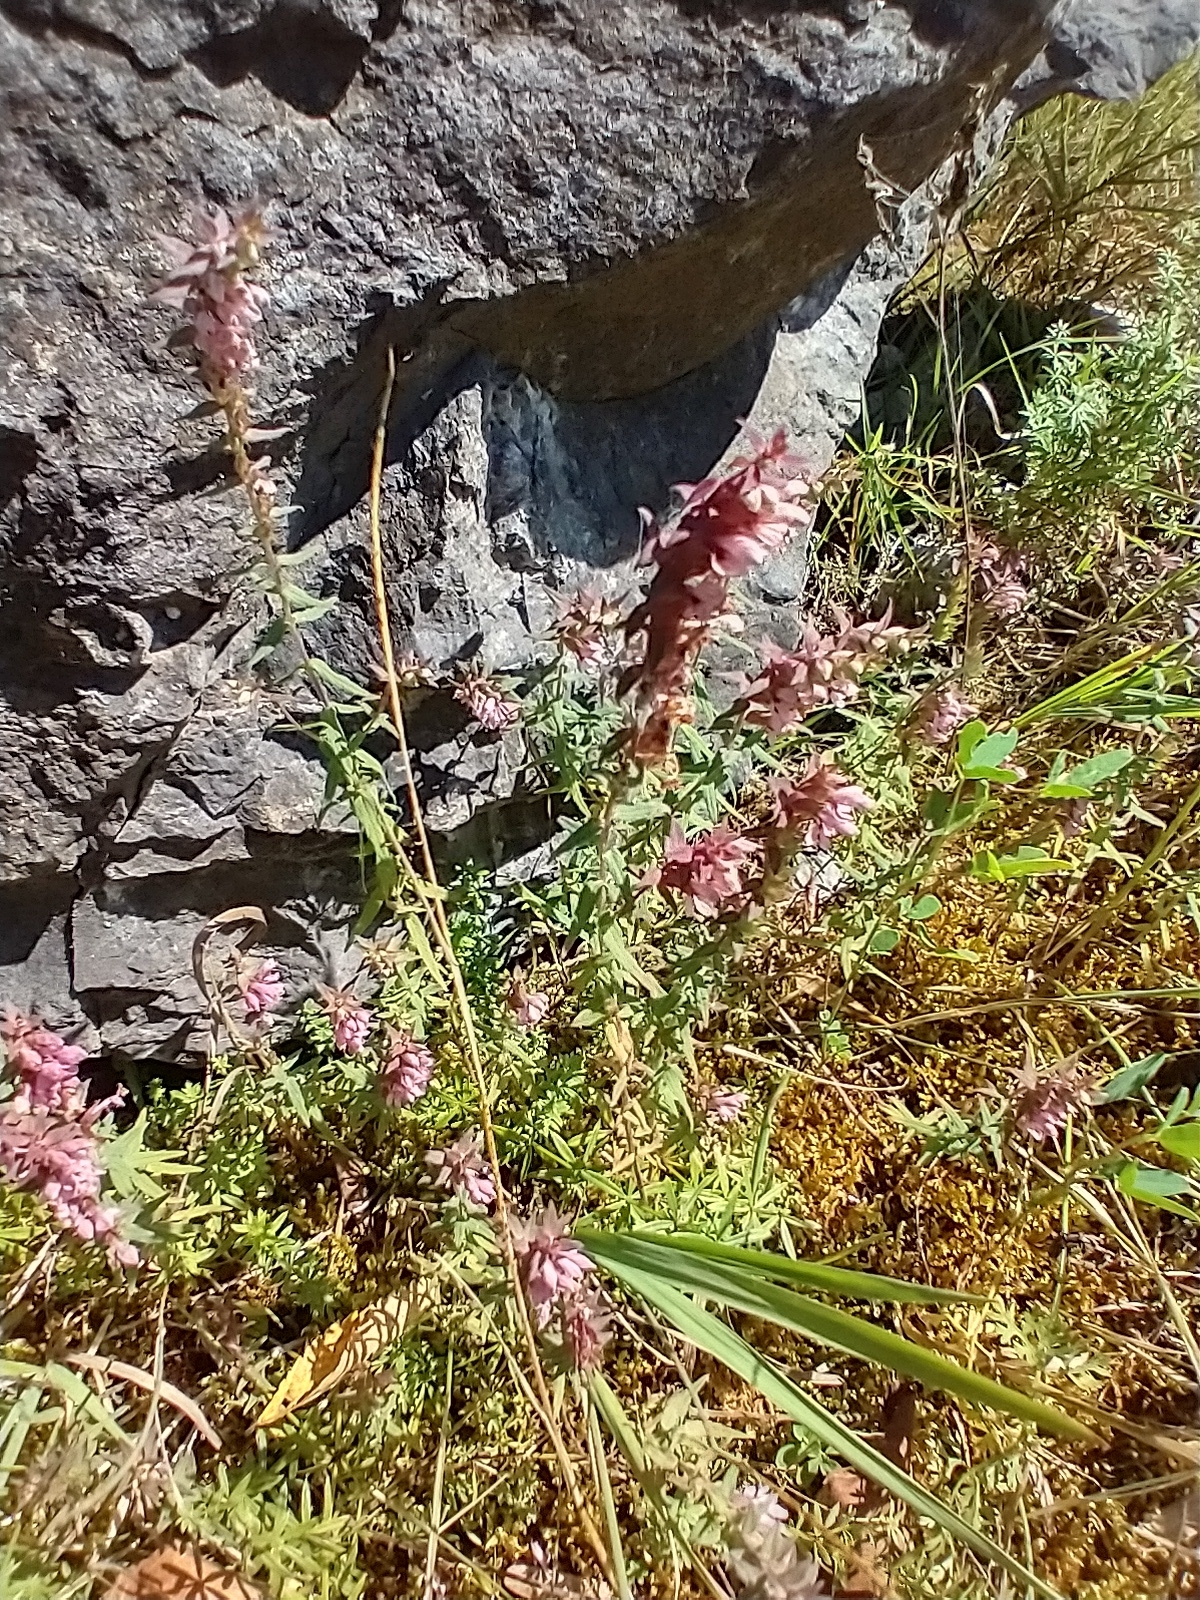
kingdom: Plantae
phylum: Tracheophyta
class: Magnoliopsida
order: Lamiales
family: Orobanchaceae
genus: Odontites
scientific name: Odontites vulgaris
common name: Broomrape
